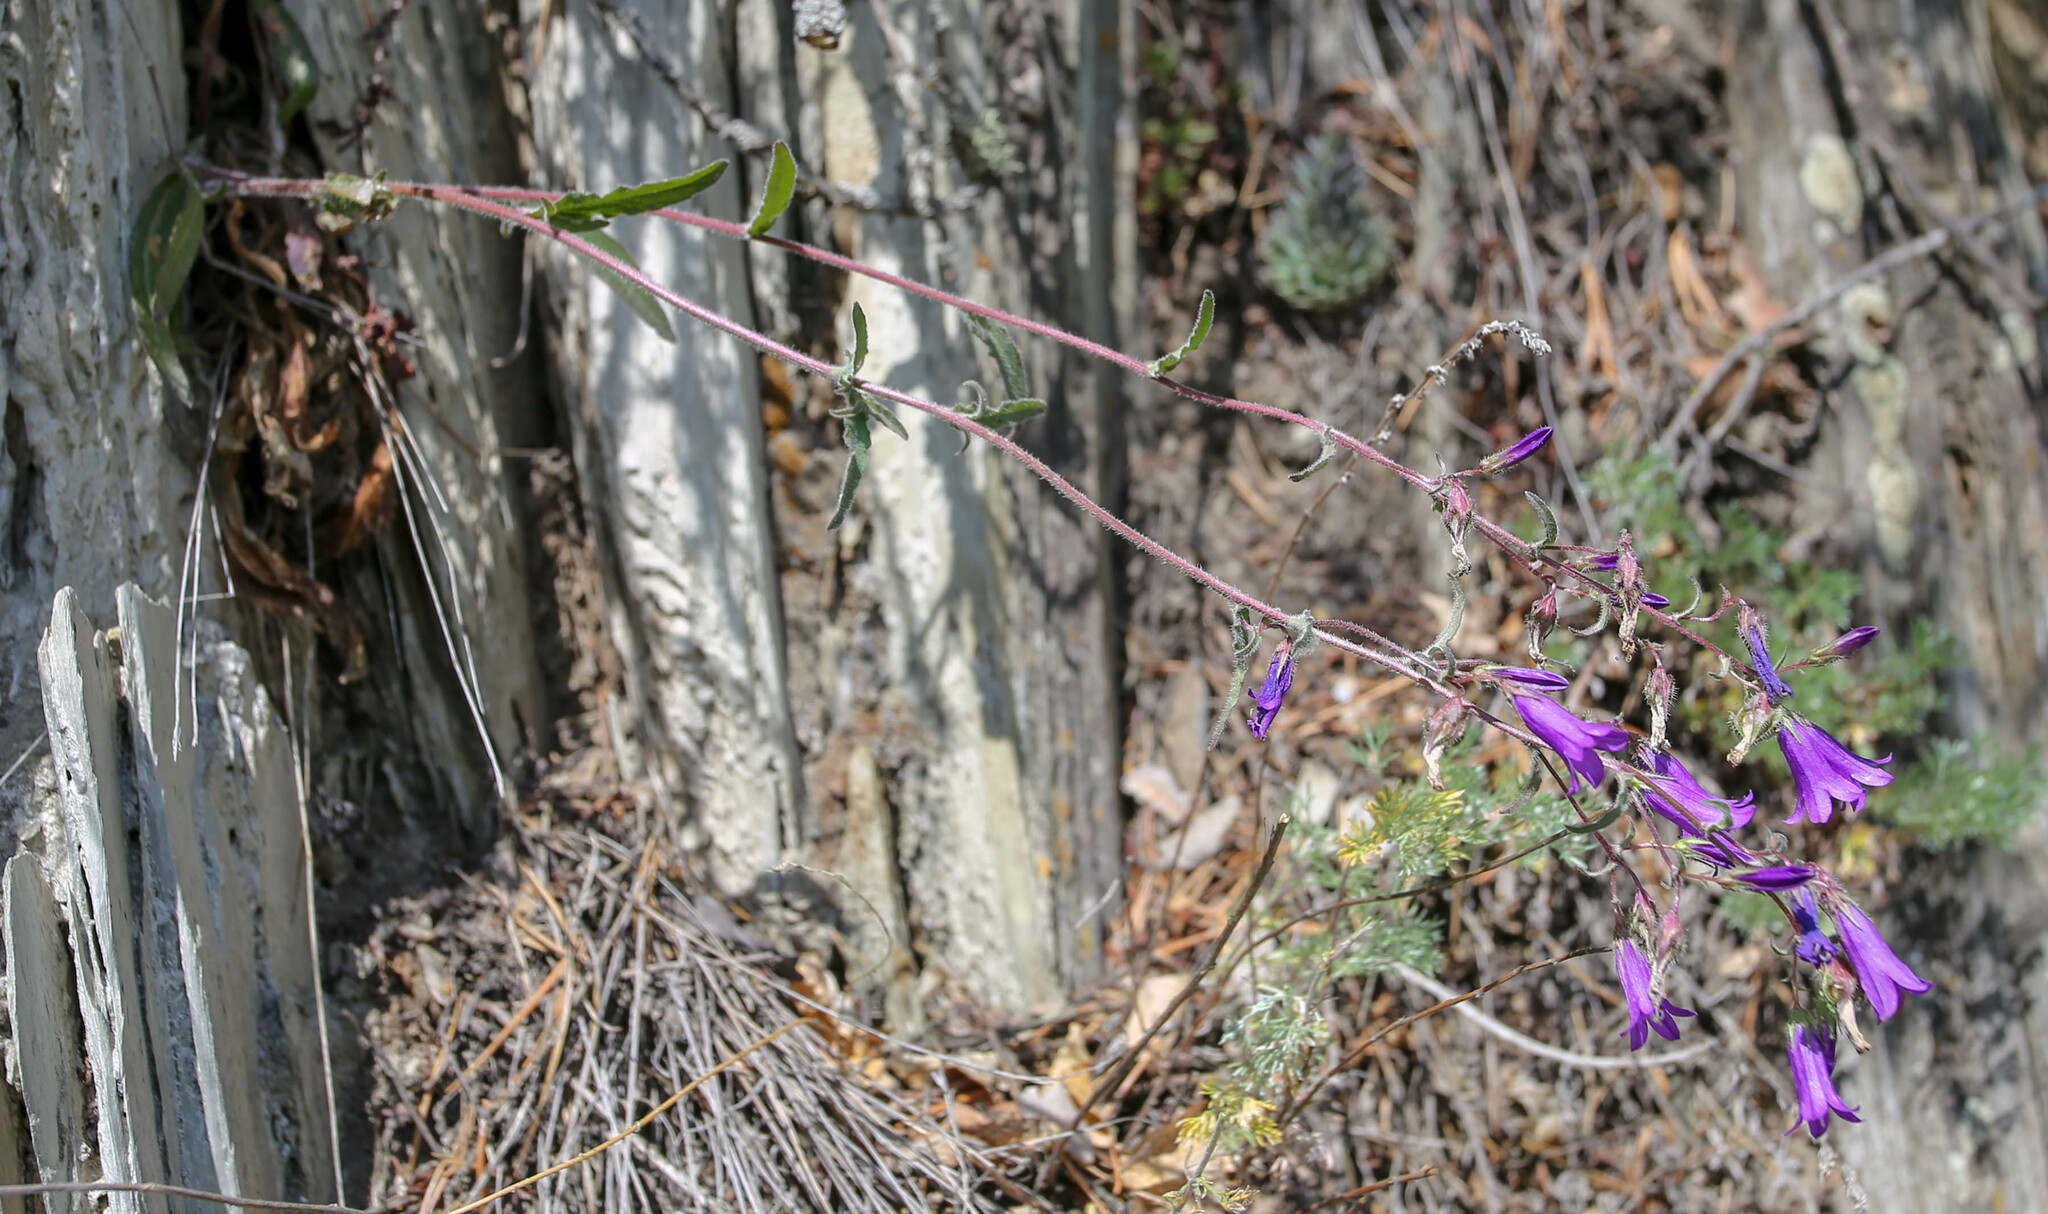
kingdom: Plantae
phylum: Tracheophyta
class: Magnoliopsida
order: Asterales
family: Campanulaceae
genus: Campanula
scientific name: Campanula sibirica
